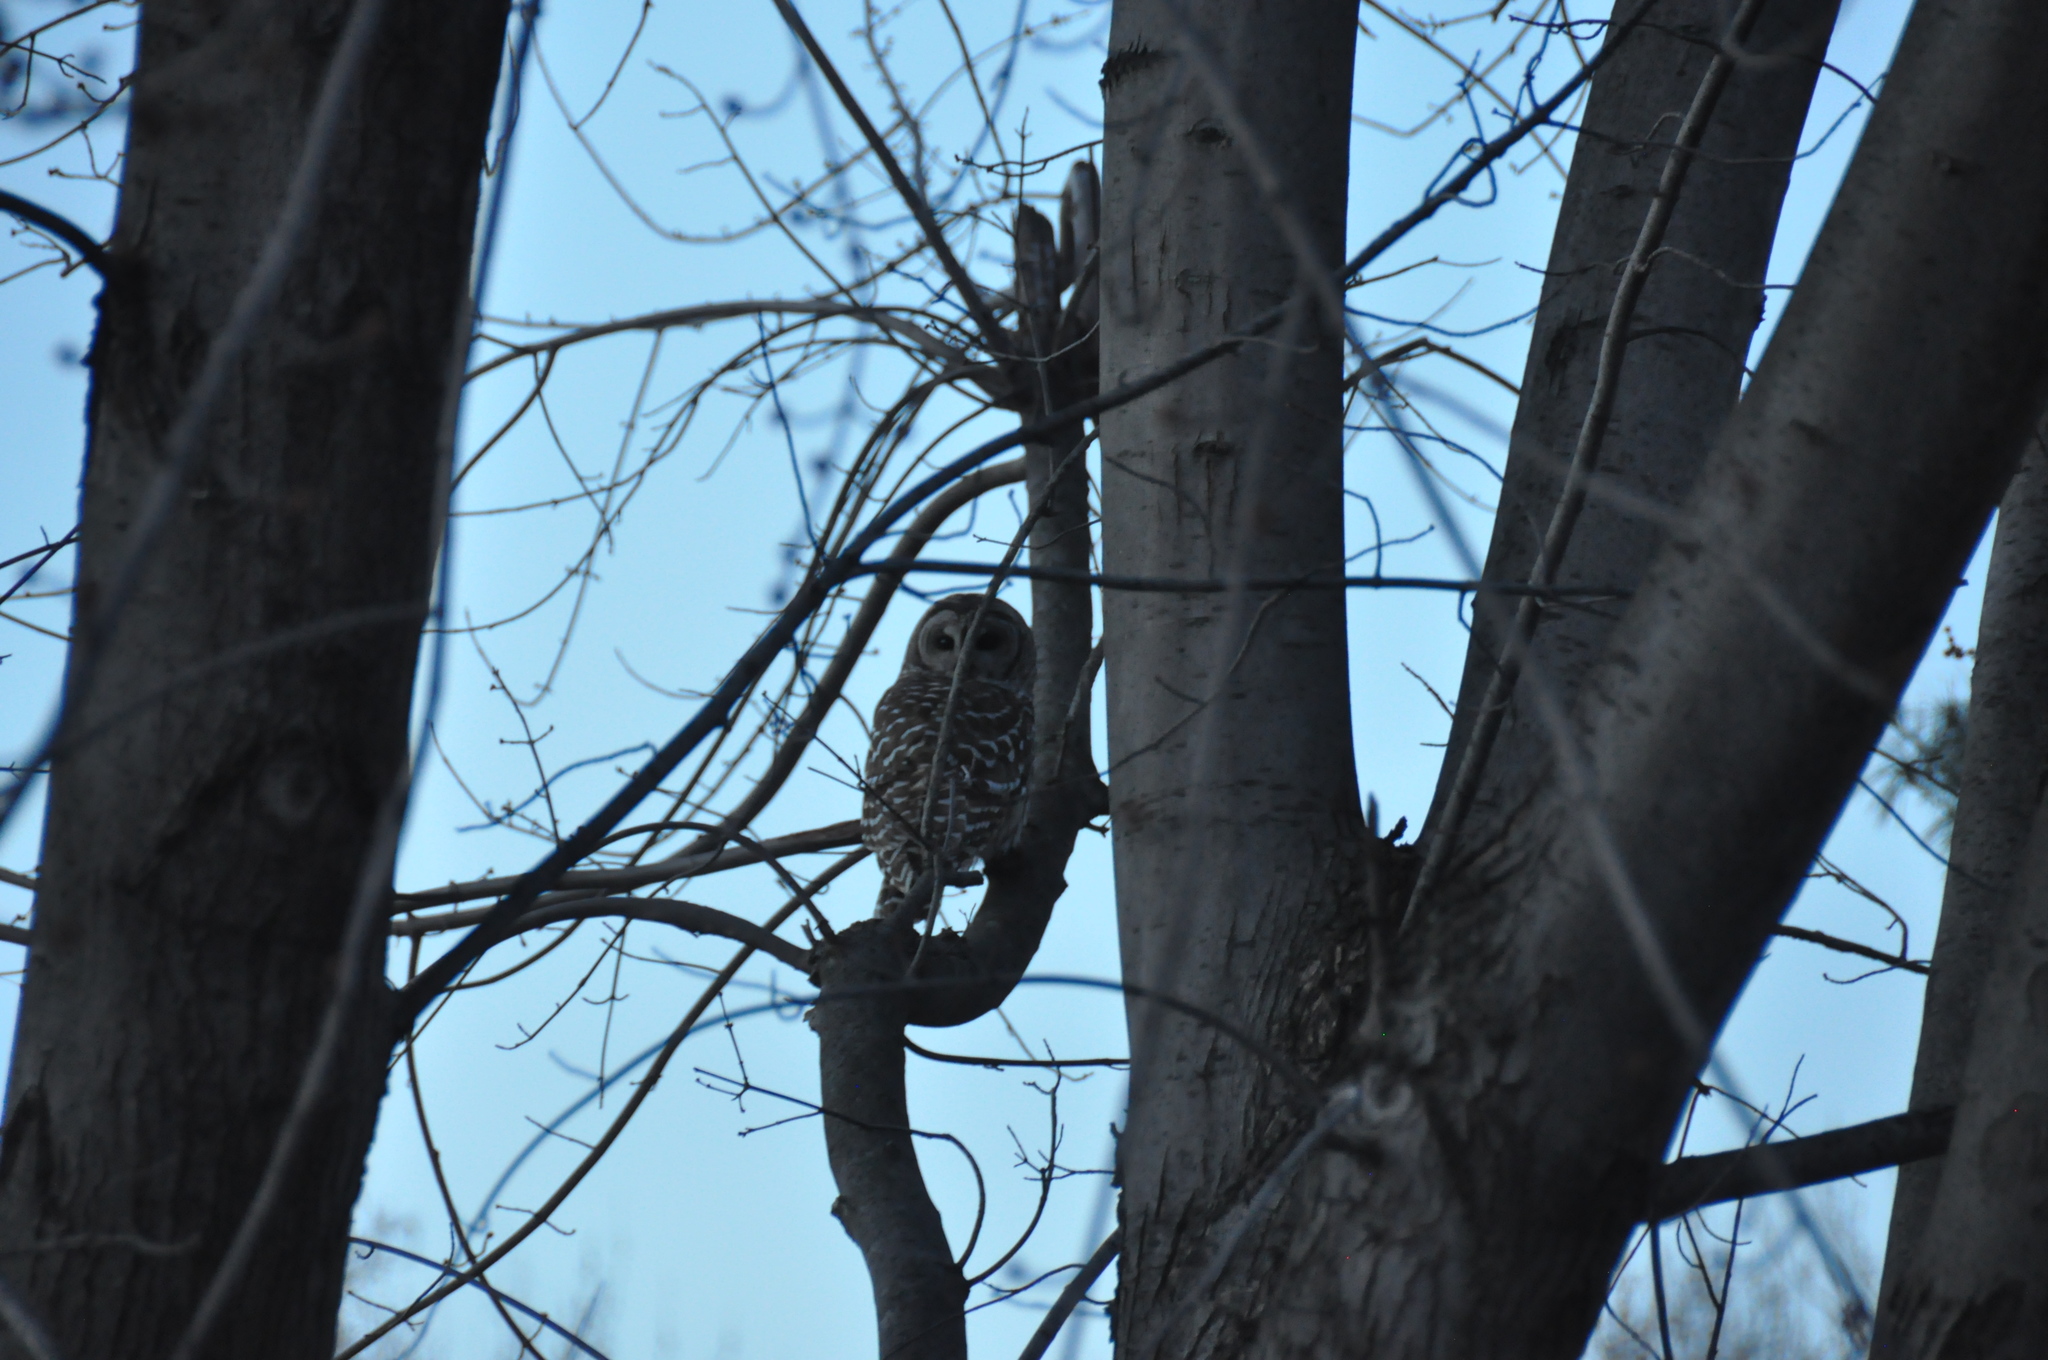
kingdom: Animalia
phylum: Chordata
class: Aves
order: Strigiformes
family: Strigidae
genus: Strix
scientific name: Strix varia
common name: Barred owl
